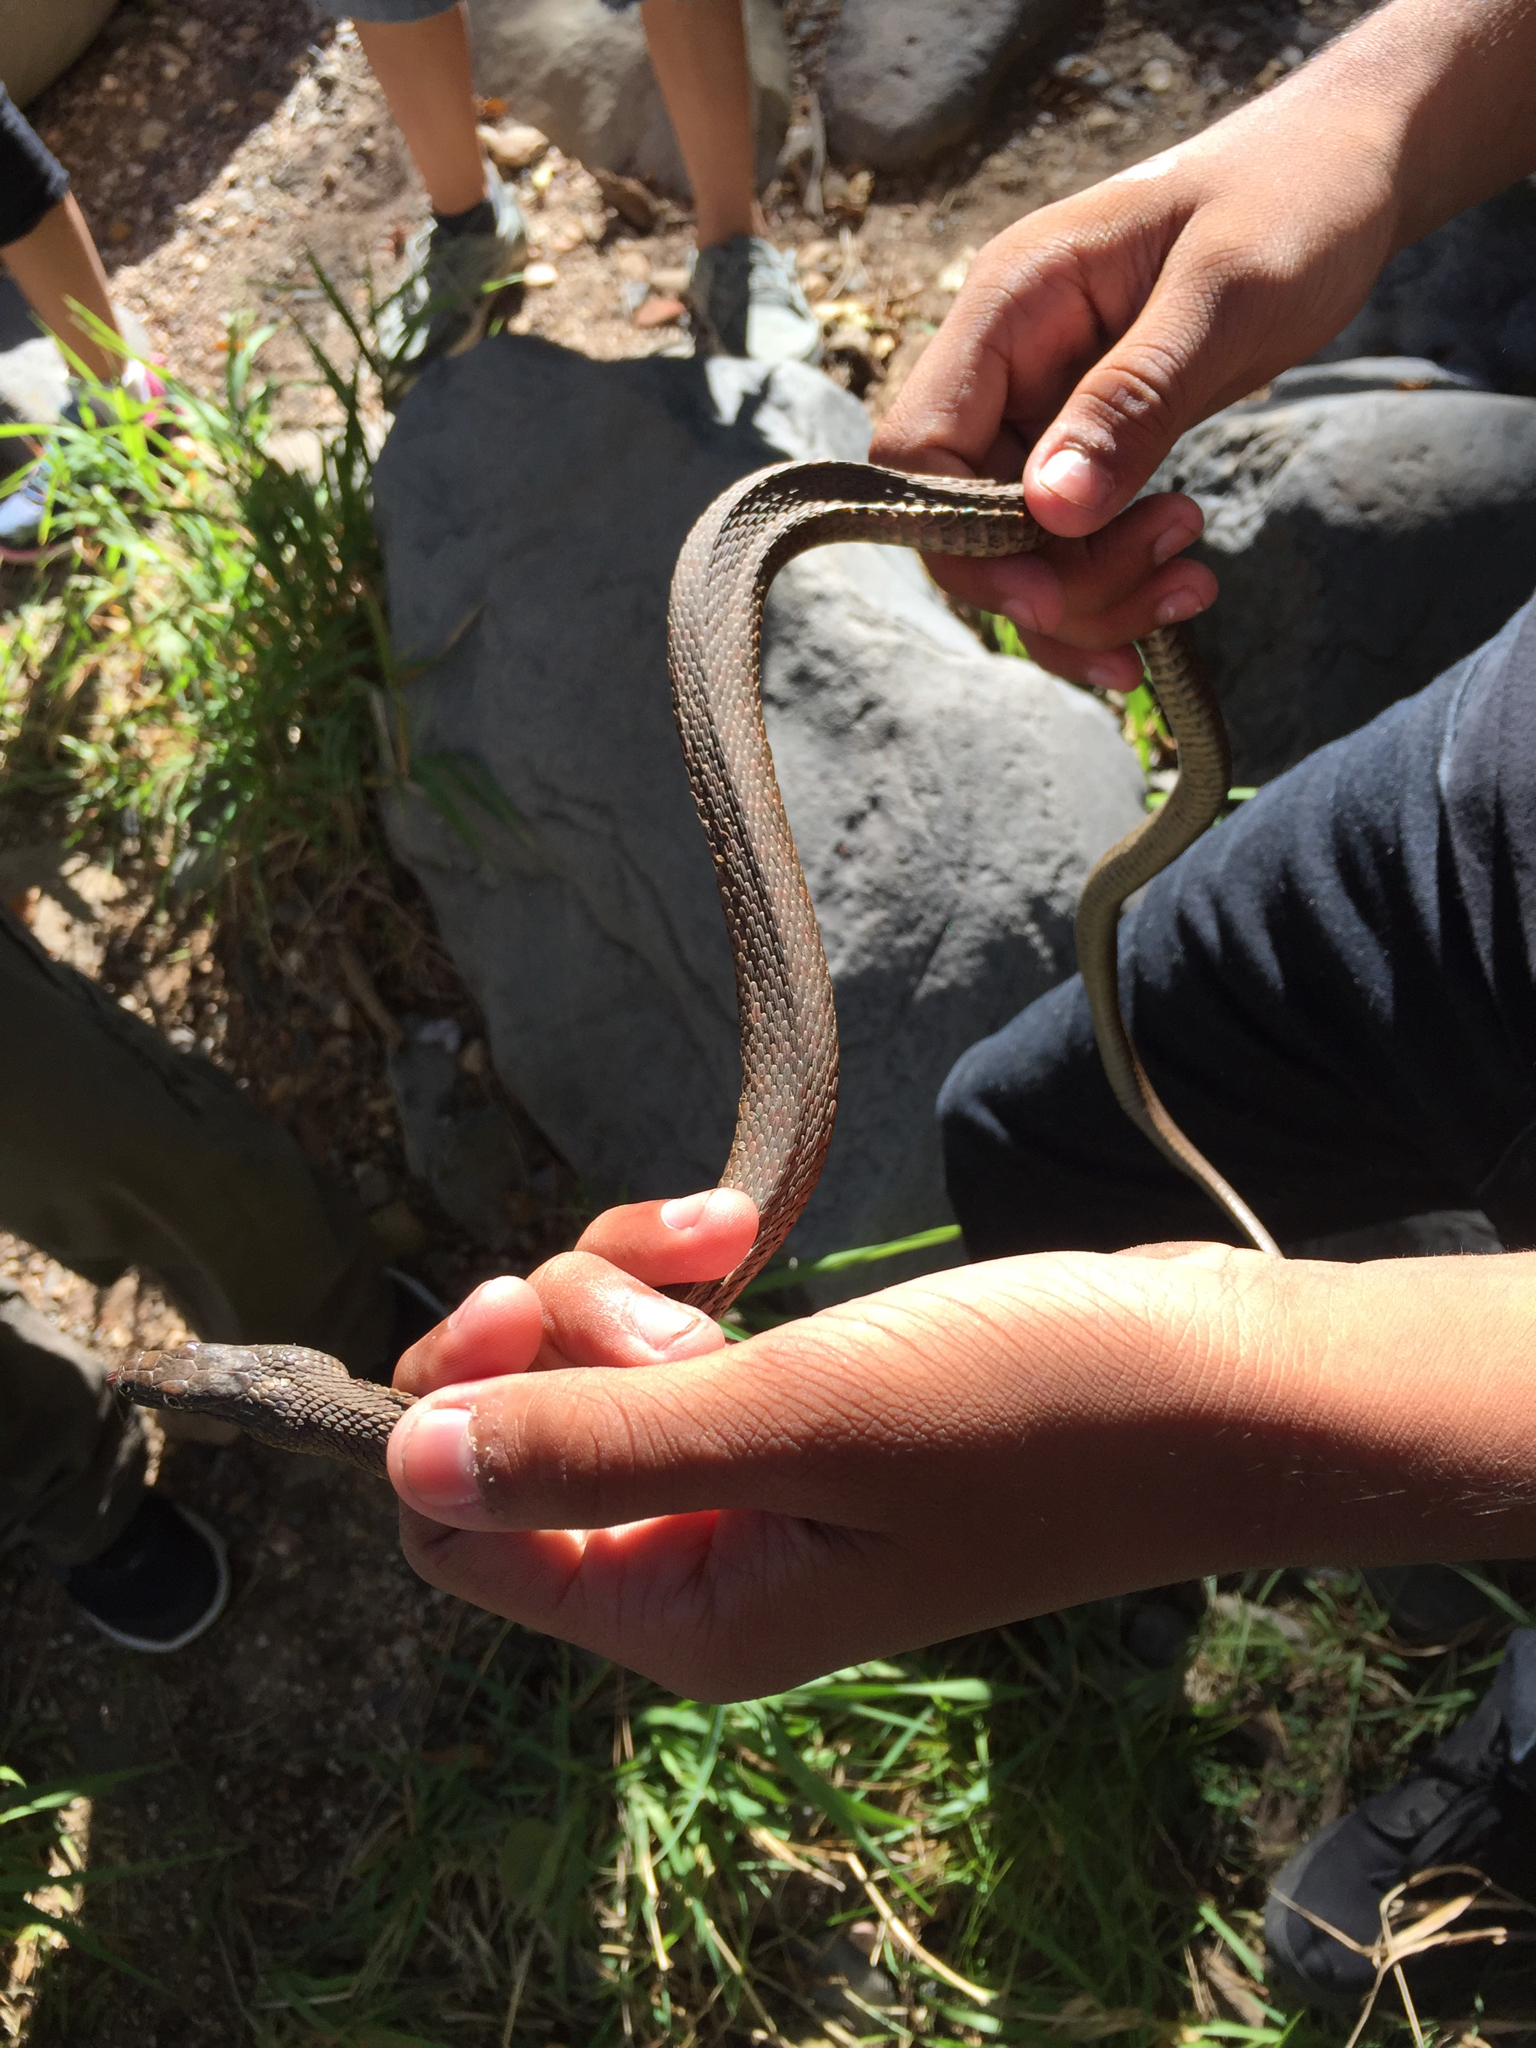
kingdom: Animalia
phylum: Chordata
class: Squamata
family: Colubridae
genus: Thamnophis
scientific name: Thamnophis rufipunctatus
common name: Narrowhead garter snake
